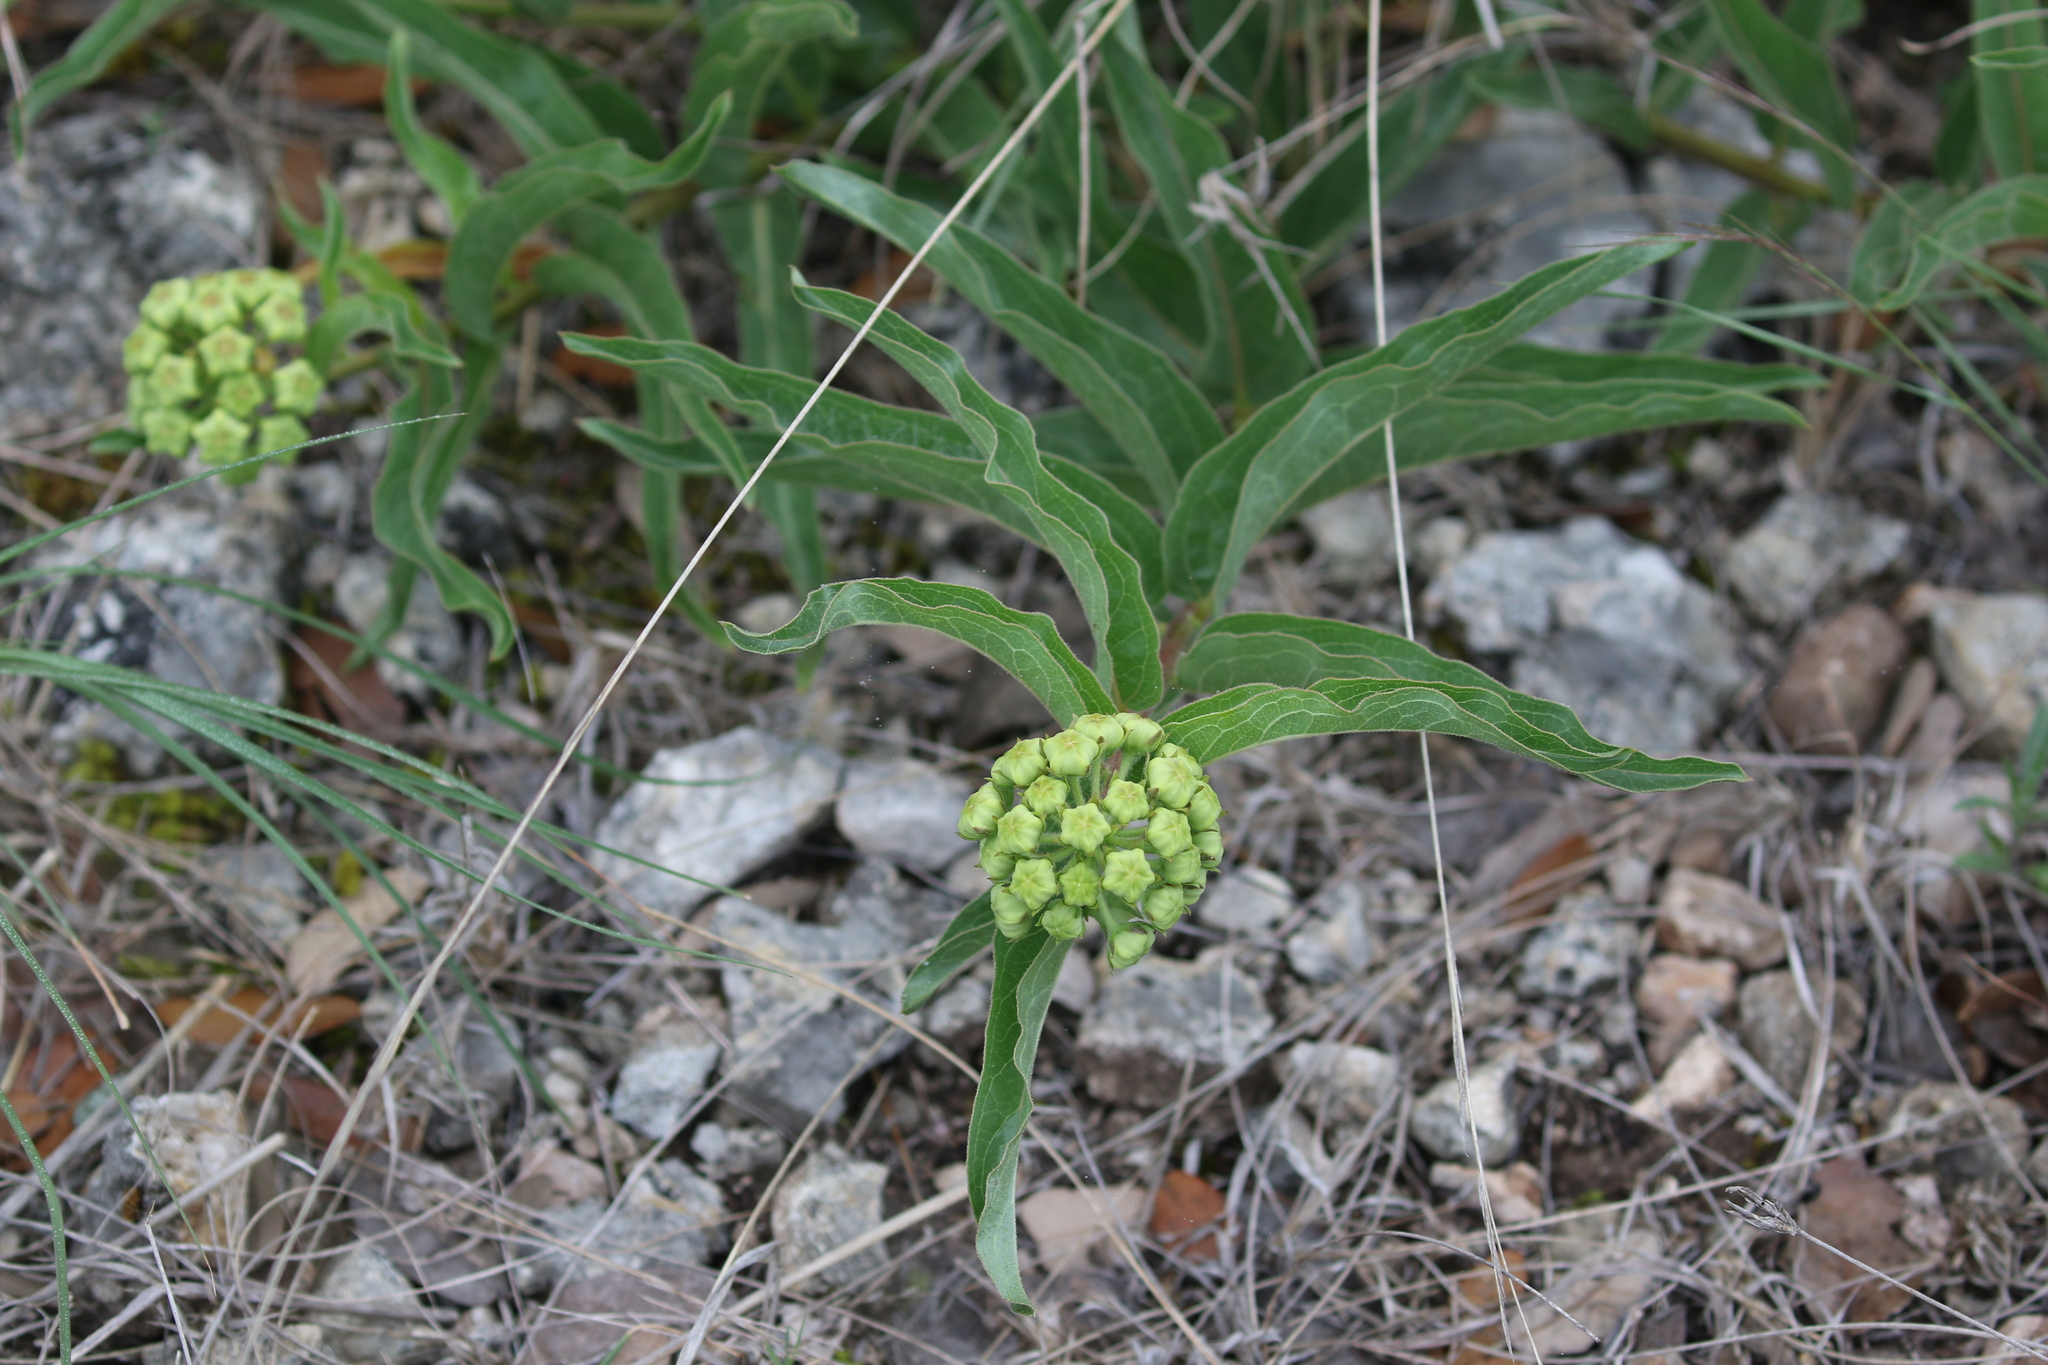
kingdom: Plantae
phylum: Tracheophyta
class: Magnoliopsida
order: Gentianales
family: Apocynaceae
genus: Asclepias
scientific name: Asclepias asperula
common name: Antelope horns
